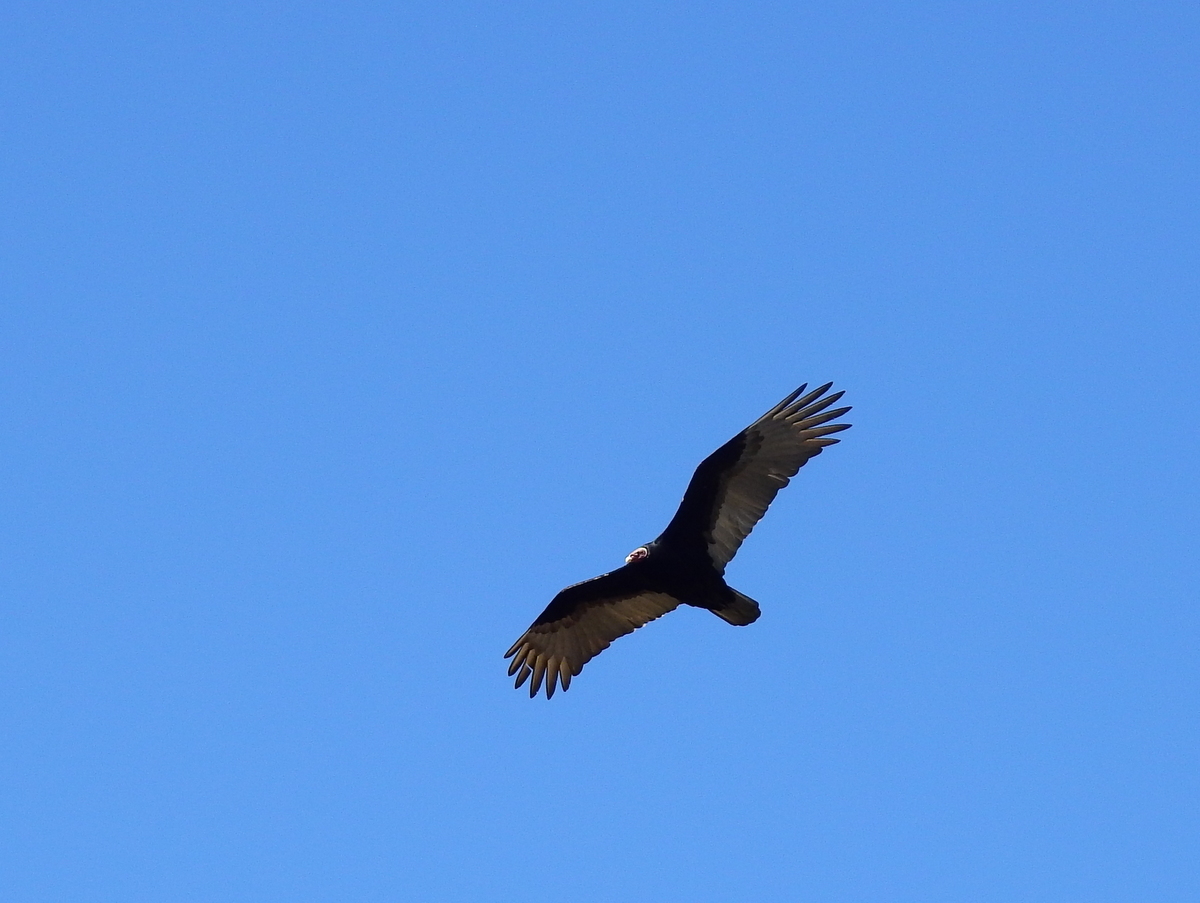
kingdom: Animalia
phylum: Chordata
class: Aves
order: Accipitriformes
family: Cathartidae
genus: Cathartes
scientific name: Cathartes aura
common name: Turkey vulture
